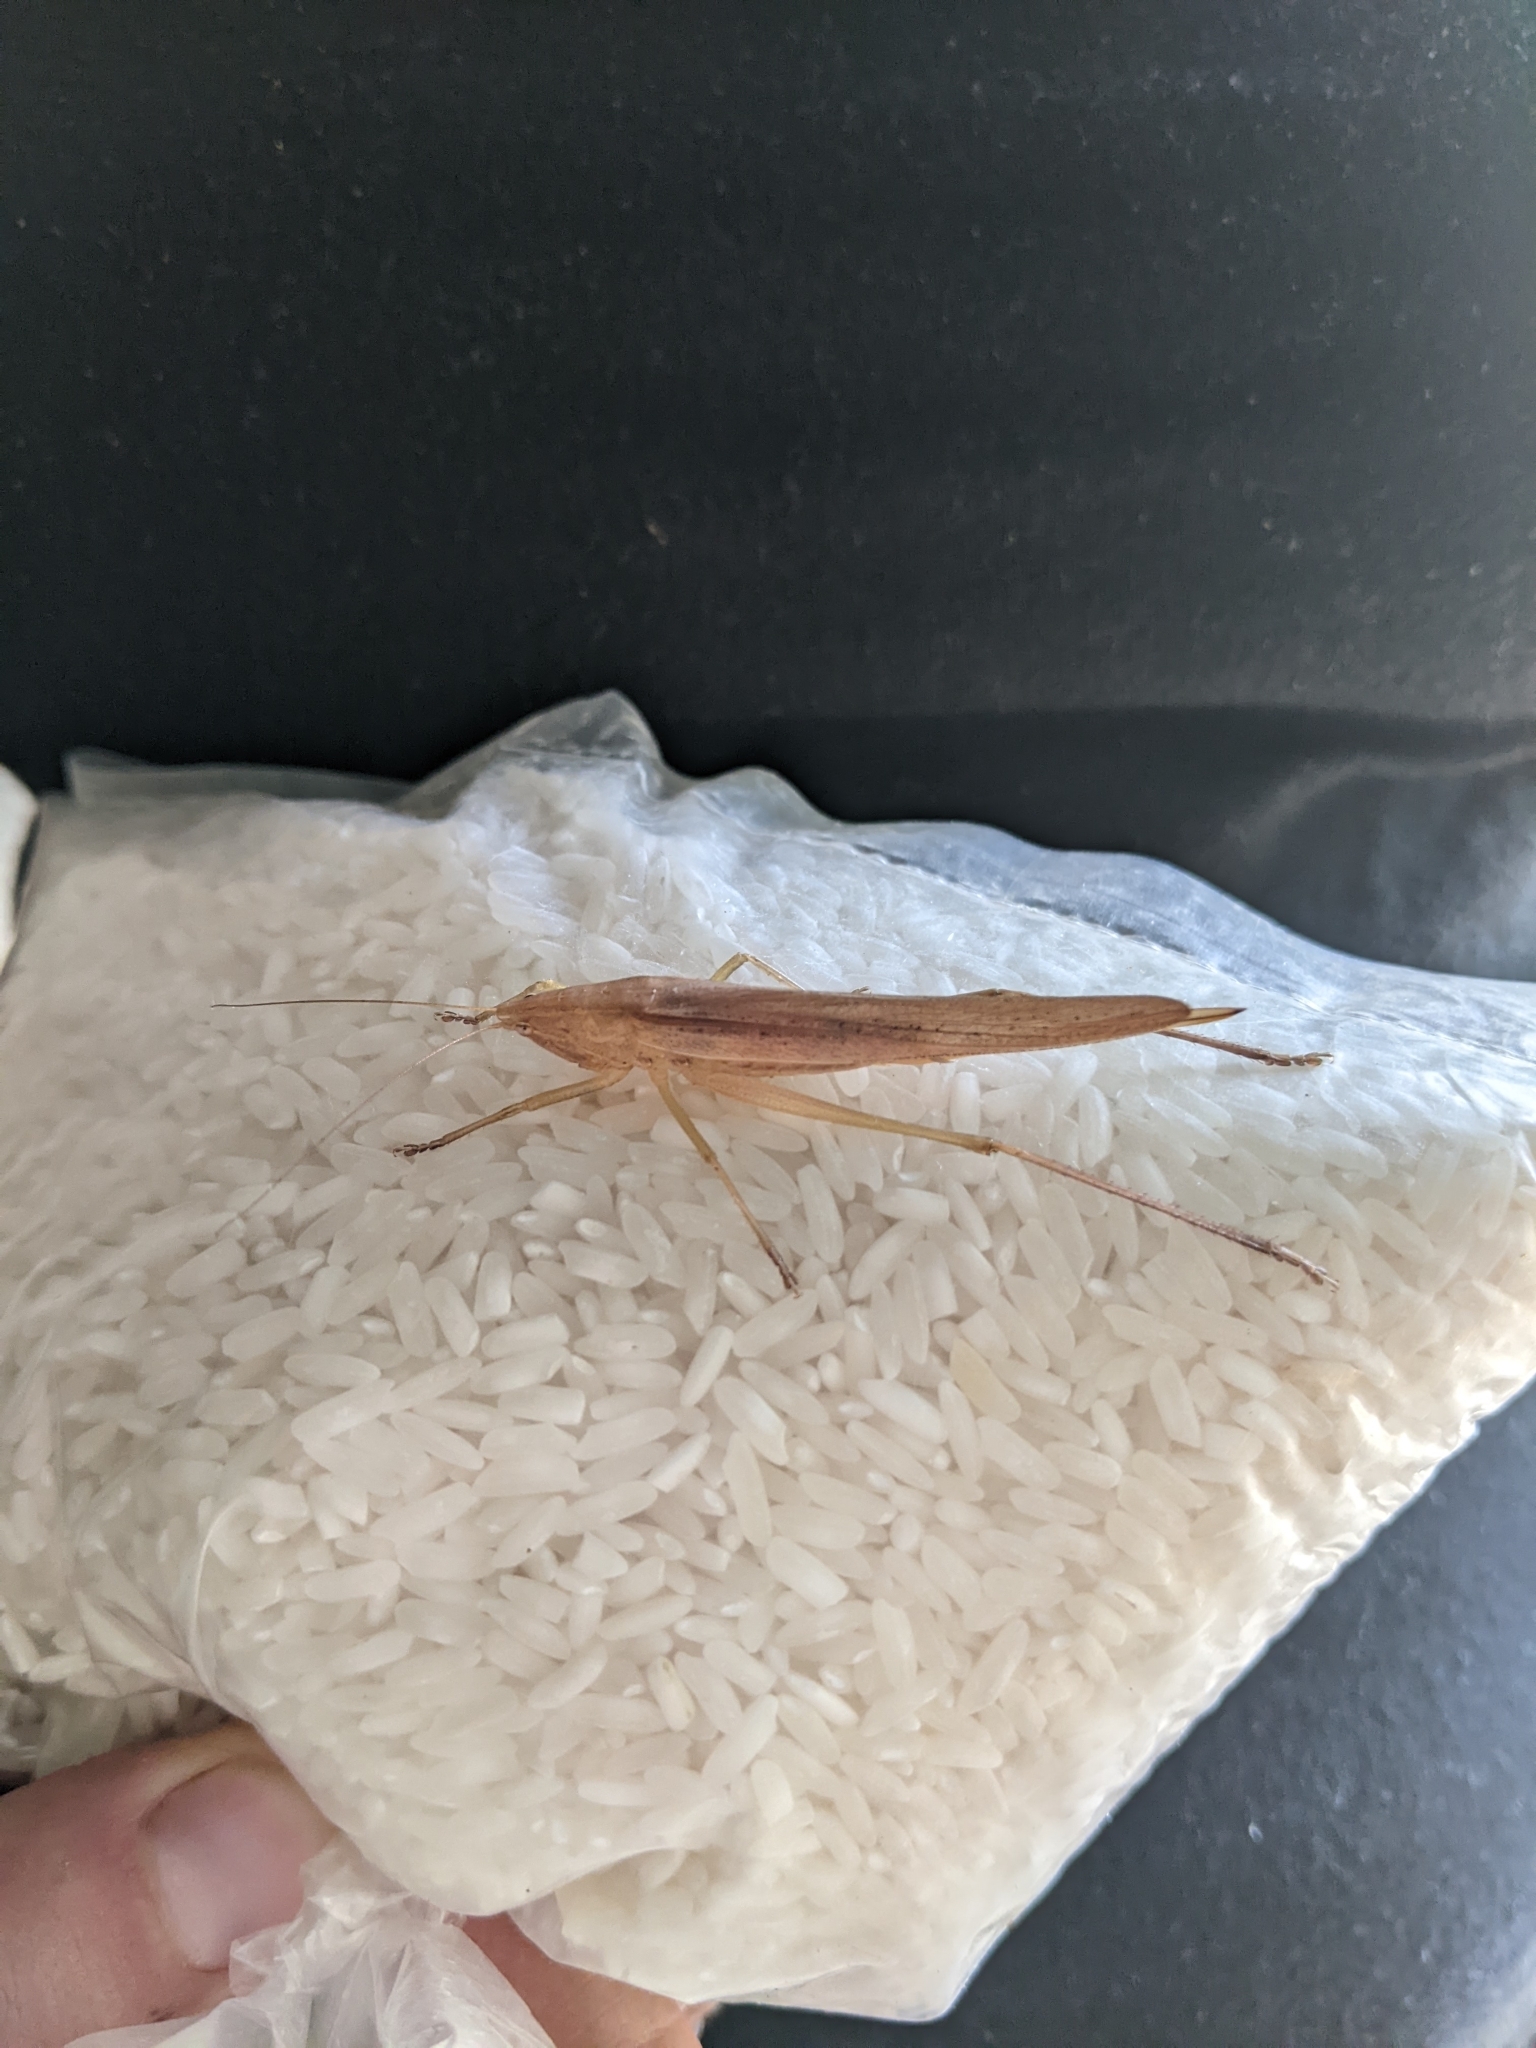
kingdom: Animalia
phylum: Arthropoda
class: Insecta
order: Orthoptera
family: Tettigoniidae
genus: Ruspolia
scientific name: Ruspolia nitidula
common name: Large conehead
